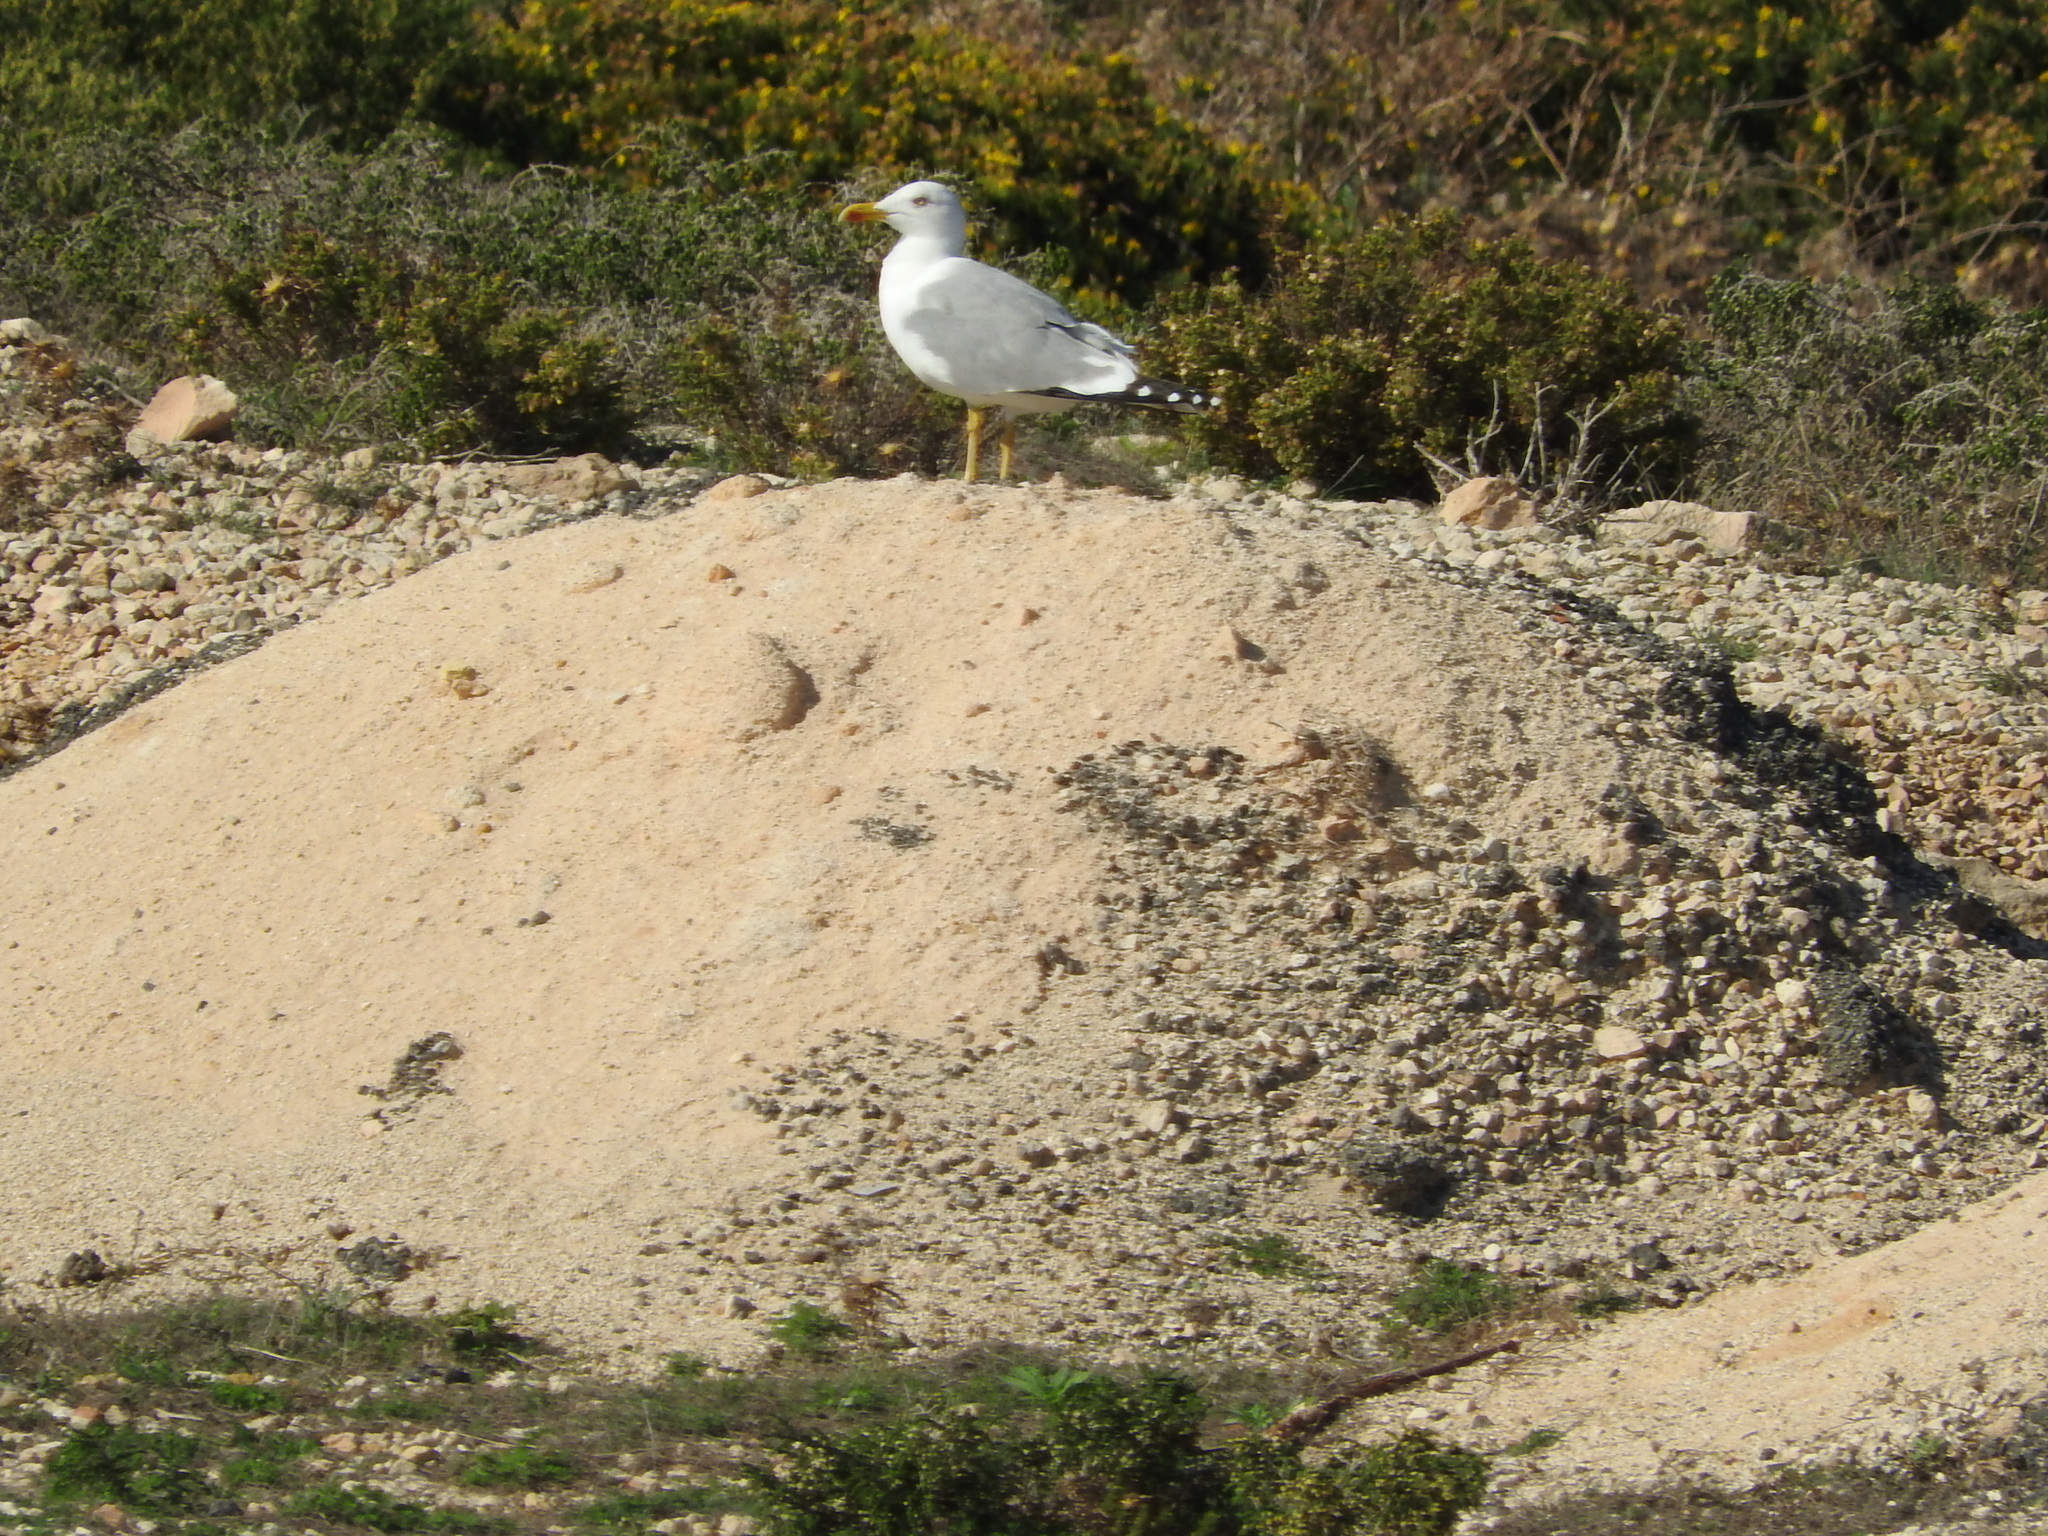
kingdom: Animalia
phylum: Chordata
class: Aves
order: Charadriiformes
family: Laridae
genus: Larus
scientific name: Larus michahellis
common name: Yellow-legged gull
